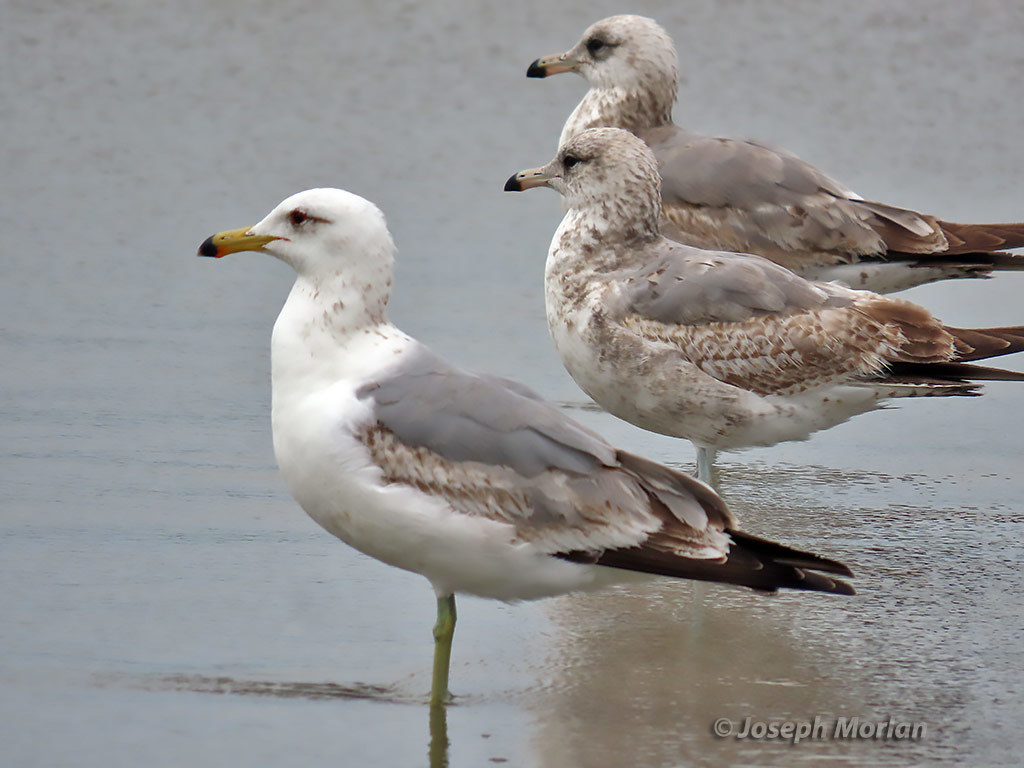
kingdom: Animalia
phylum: Chordata
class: Aves
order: Charadriiformes
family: Laridae
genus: Larus
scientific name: Larus californicus
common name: California gull
